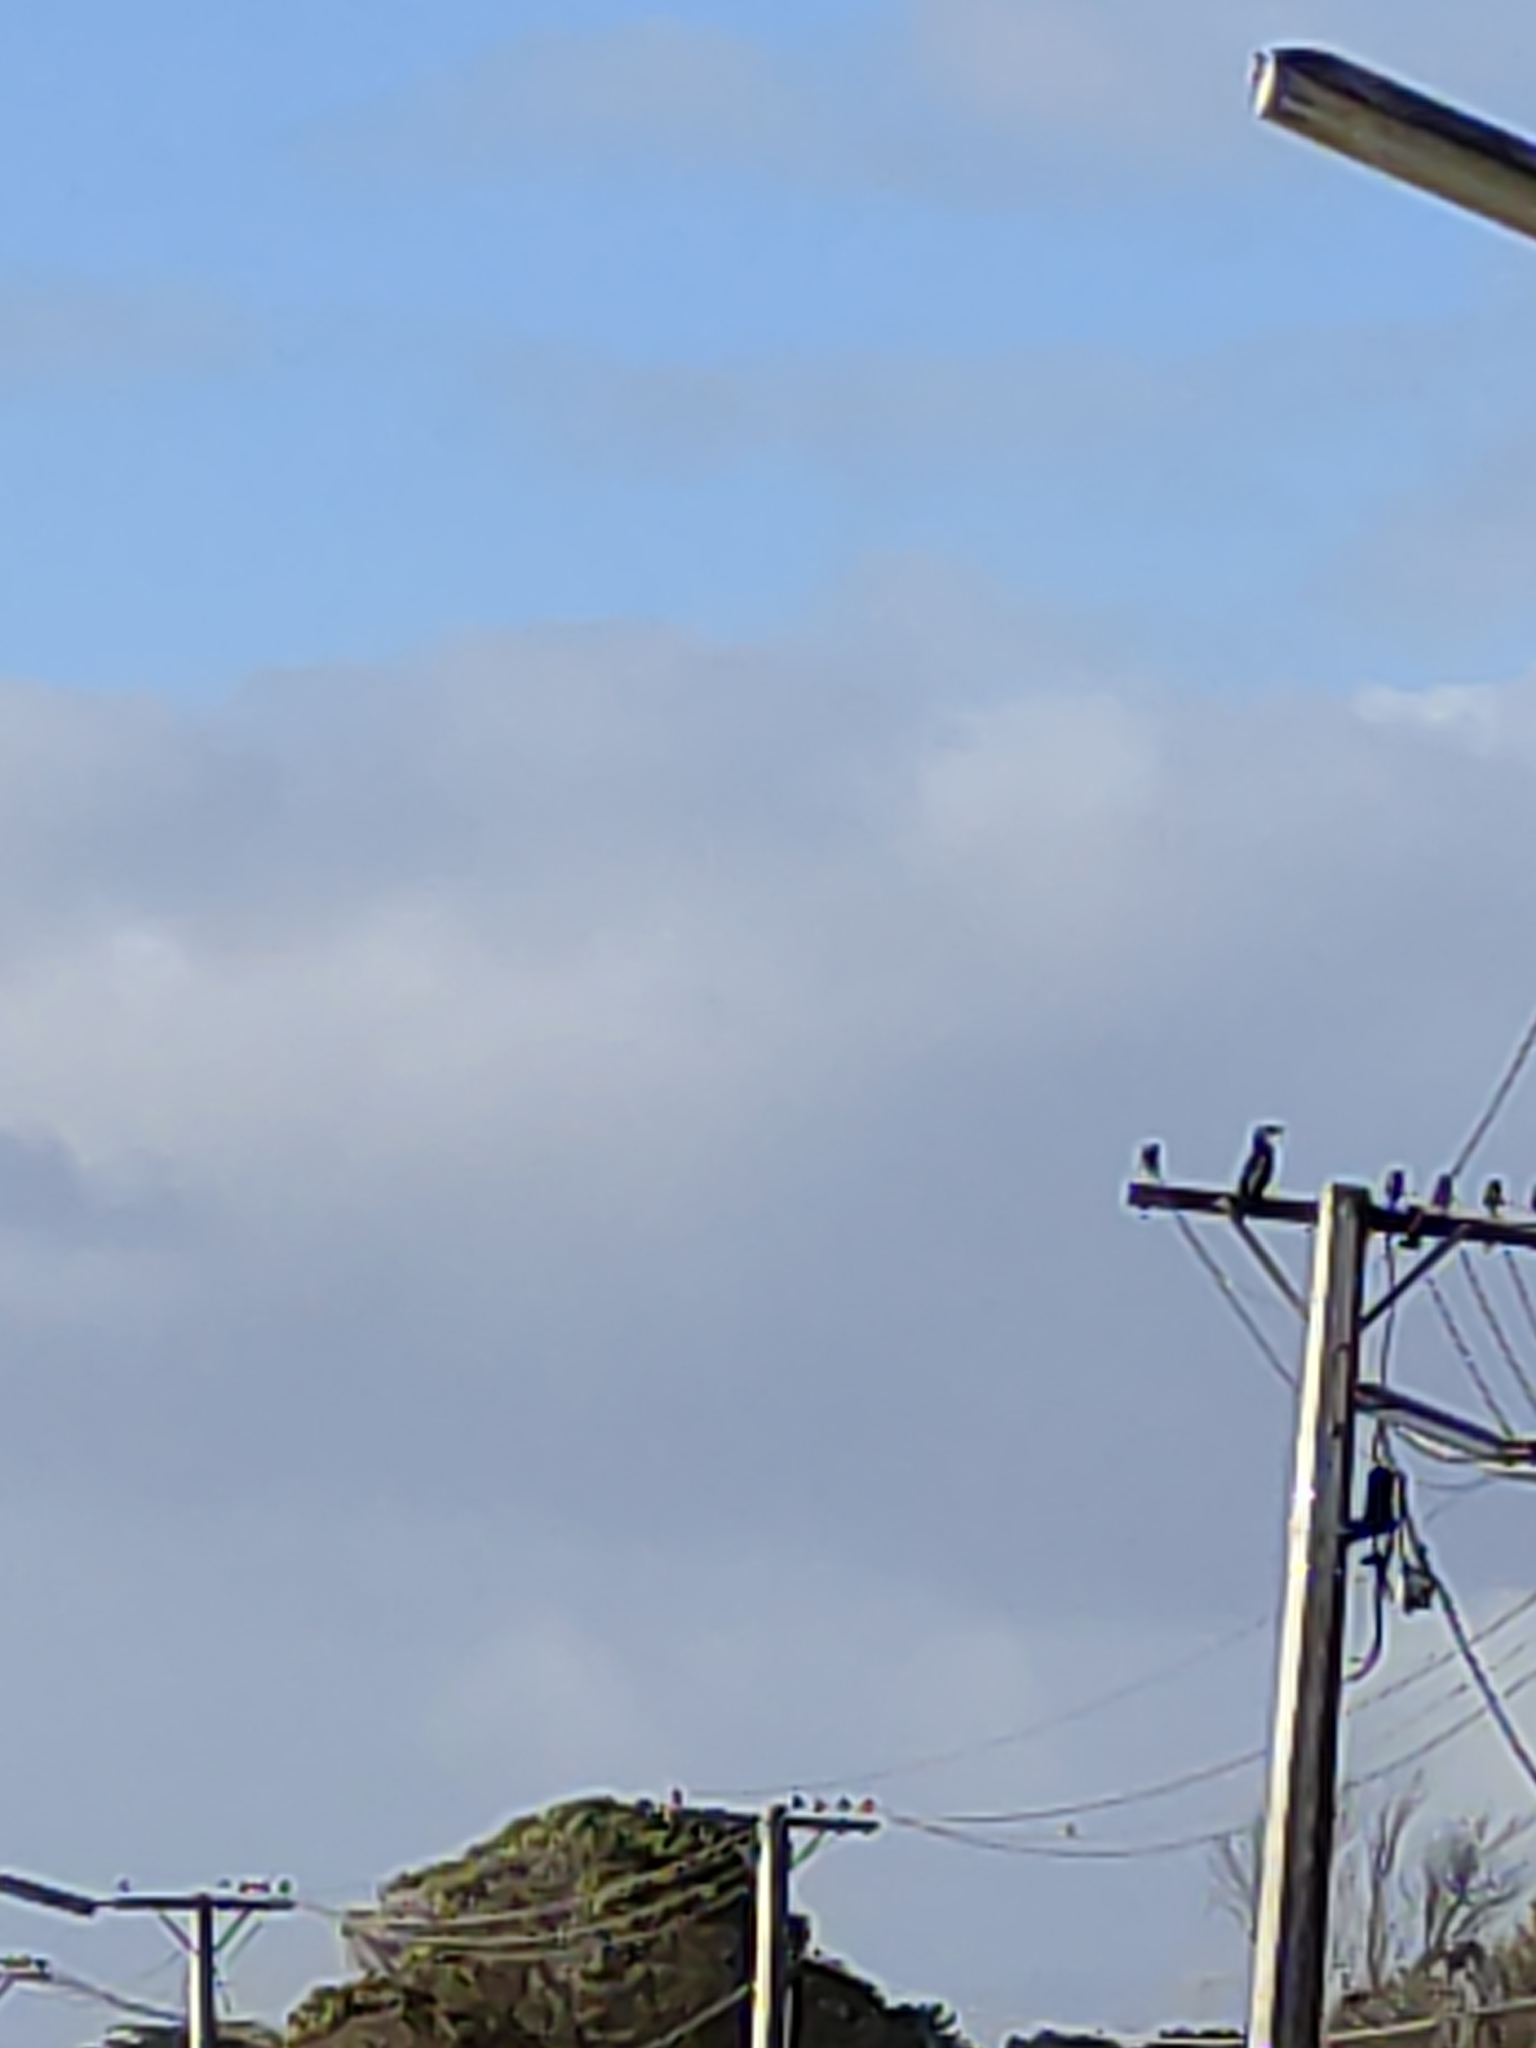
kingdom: Animalia
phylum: Chordata
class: Aves
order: Suliformes
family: Phalacrocoracidae
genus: Microcarbo
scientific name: Microcarbo melanoleucos
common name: Little pied cormorant
